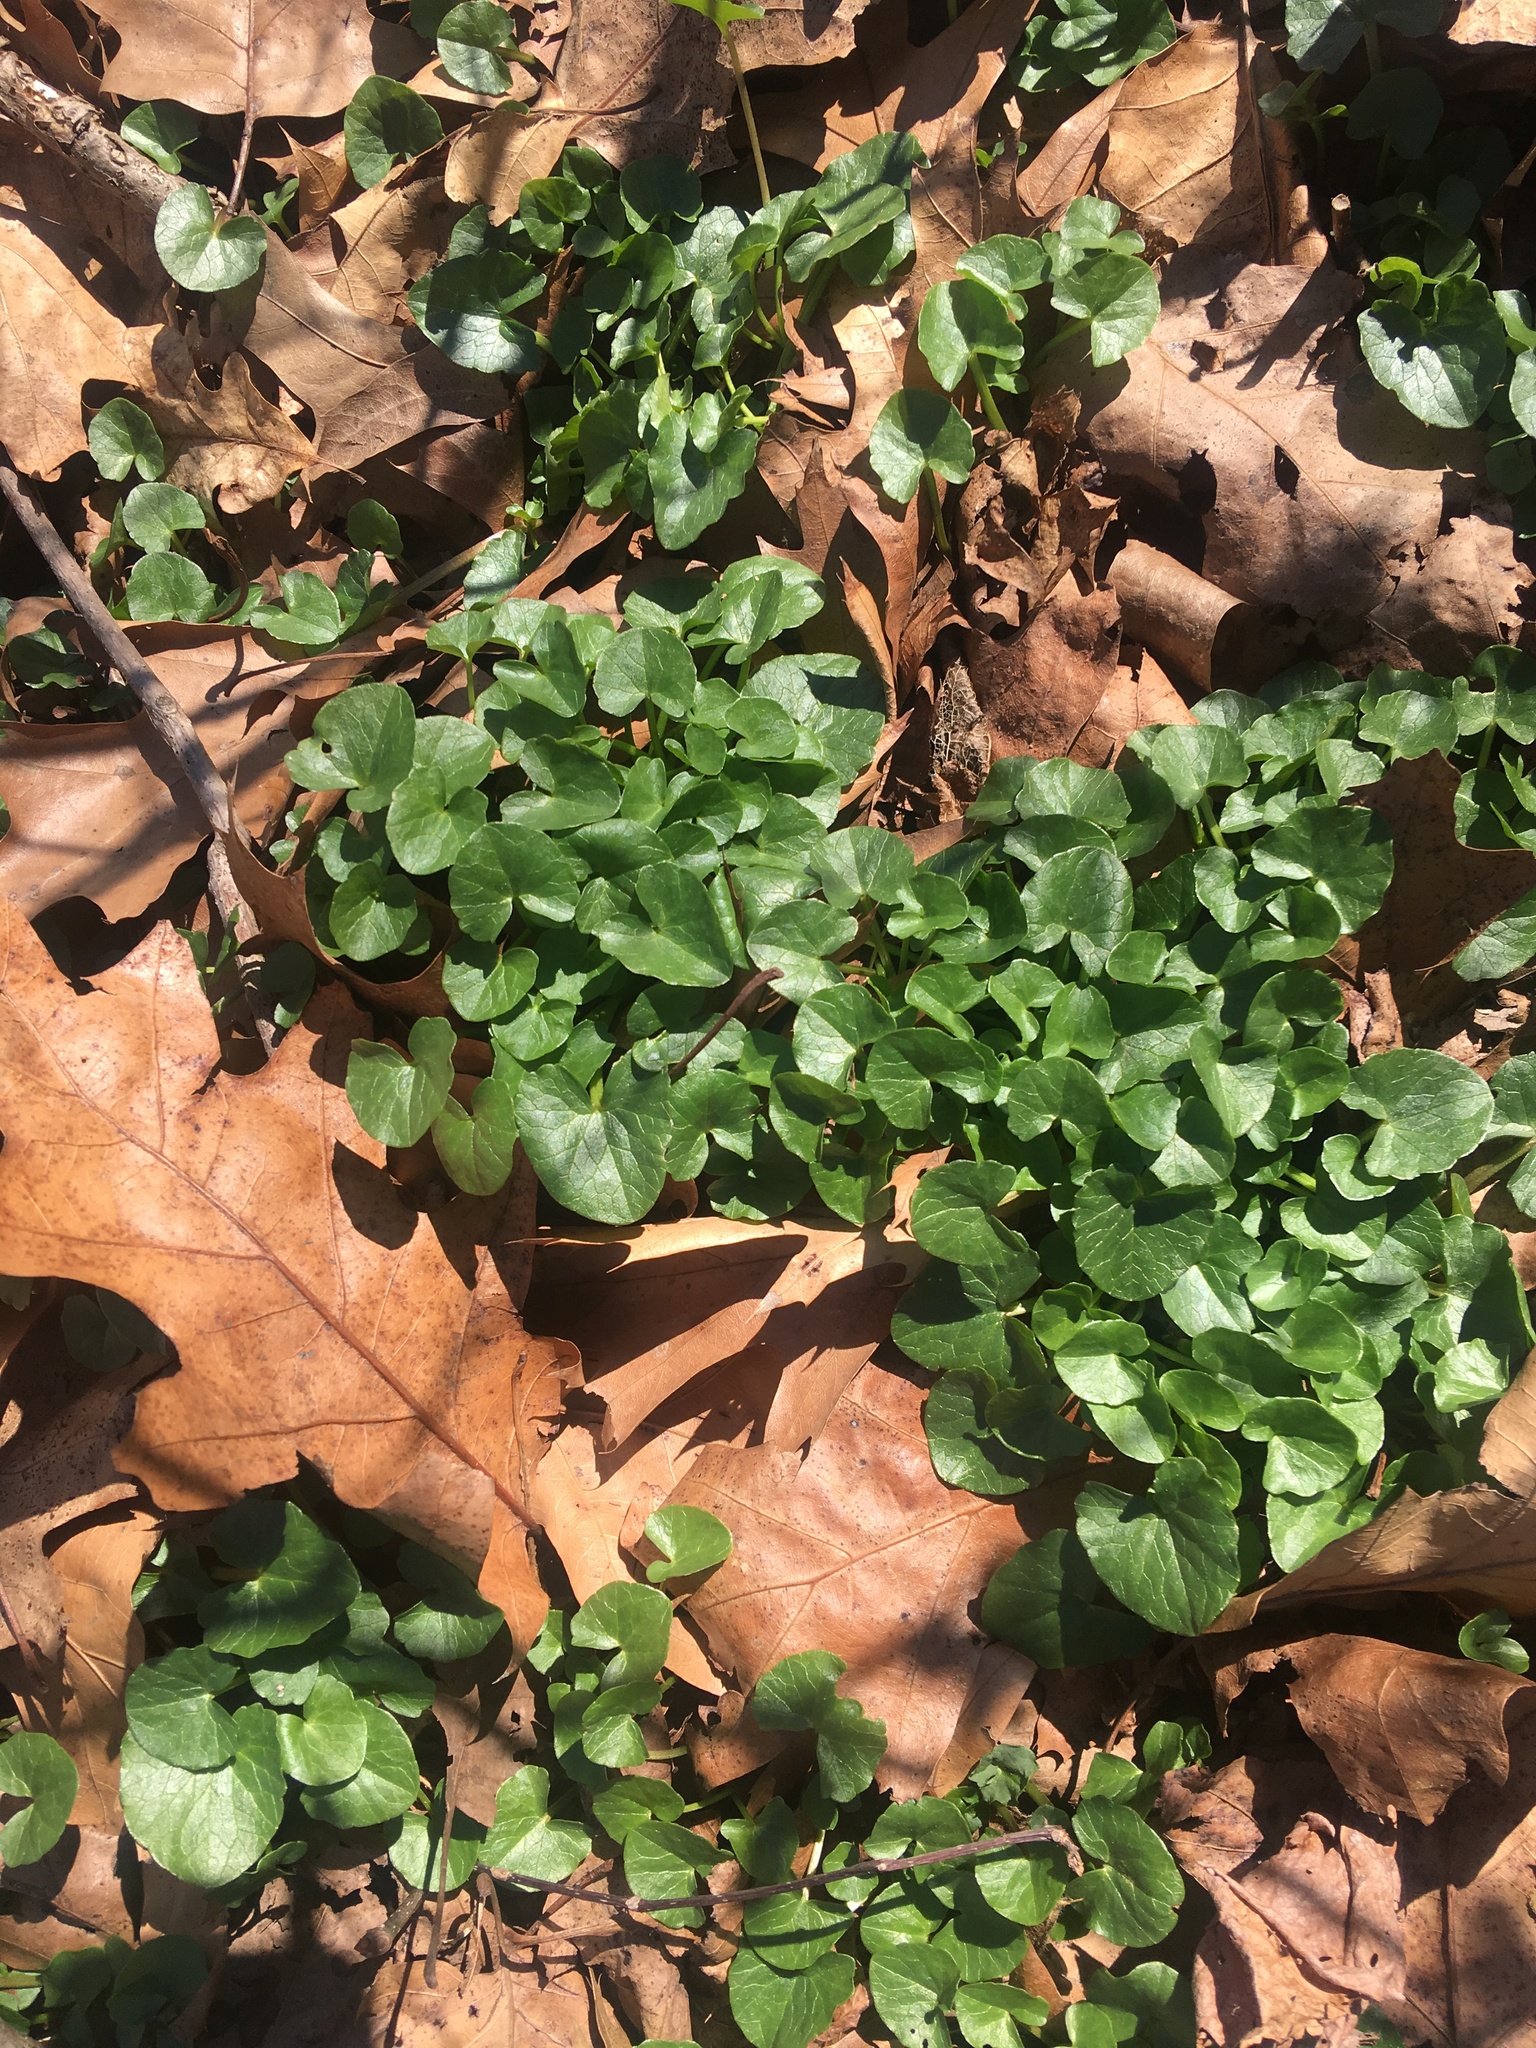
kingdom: Plantae
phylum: Tracheophyta
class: Magnoliopsida
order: Ranunculales
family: Ranunculaceae
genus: Ficaria
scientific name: Ficaria verna
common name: Lesser celandine
